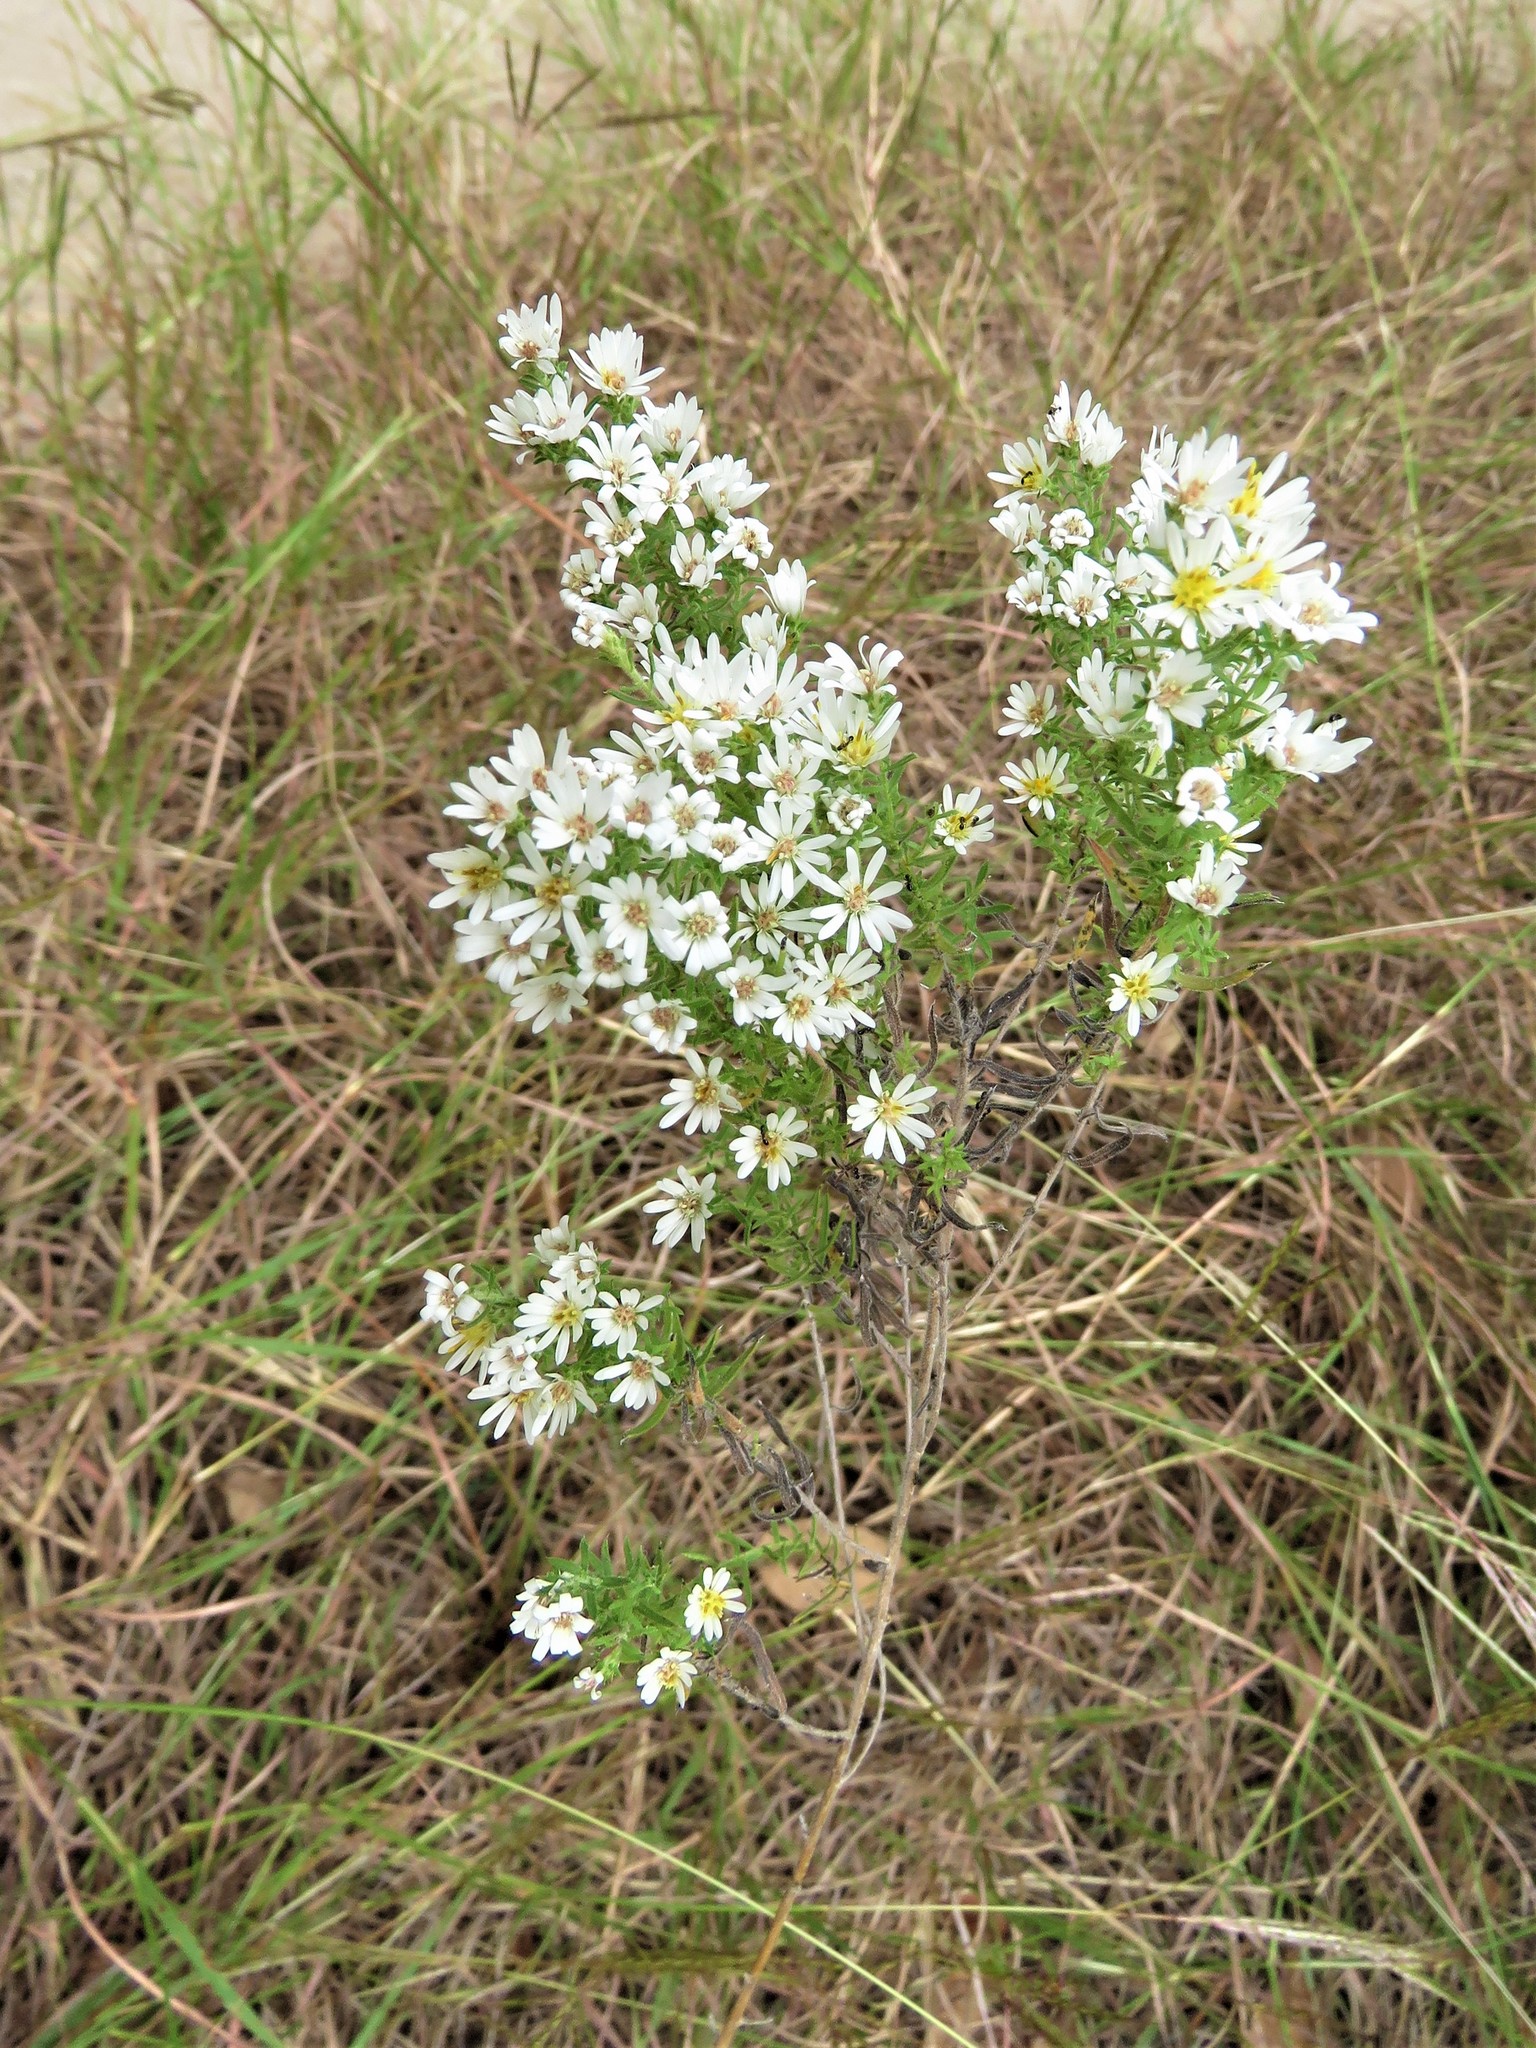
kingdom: Plantae
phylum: Tracheophyta
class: Magnoliopsida
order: Asterales
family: Asteraceae
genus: Symphyotrichum
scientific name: Symphyotrichum ericoides
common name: Heath aster
